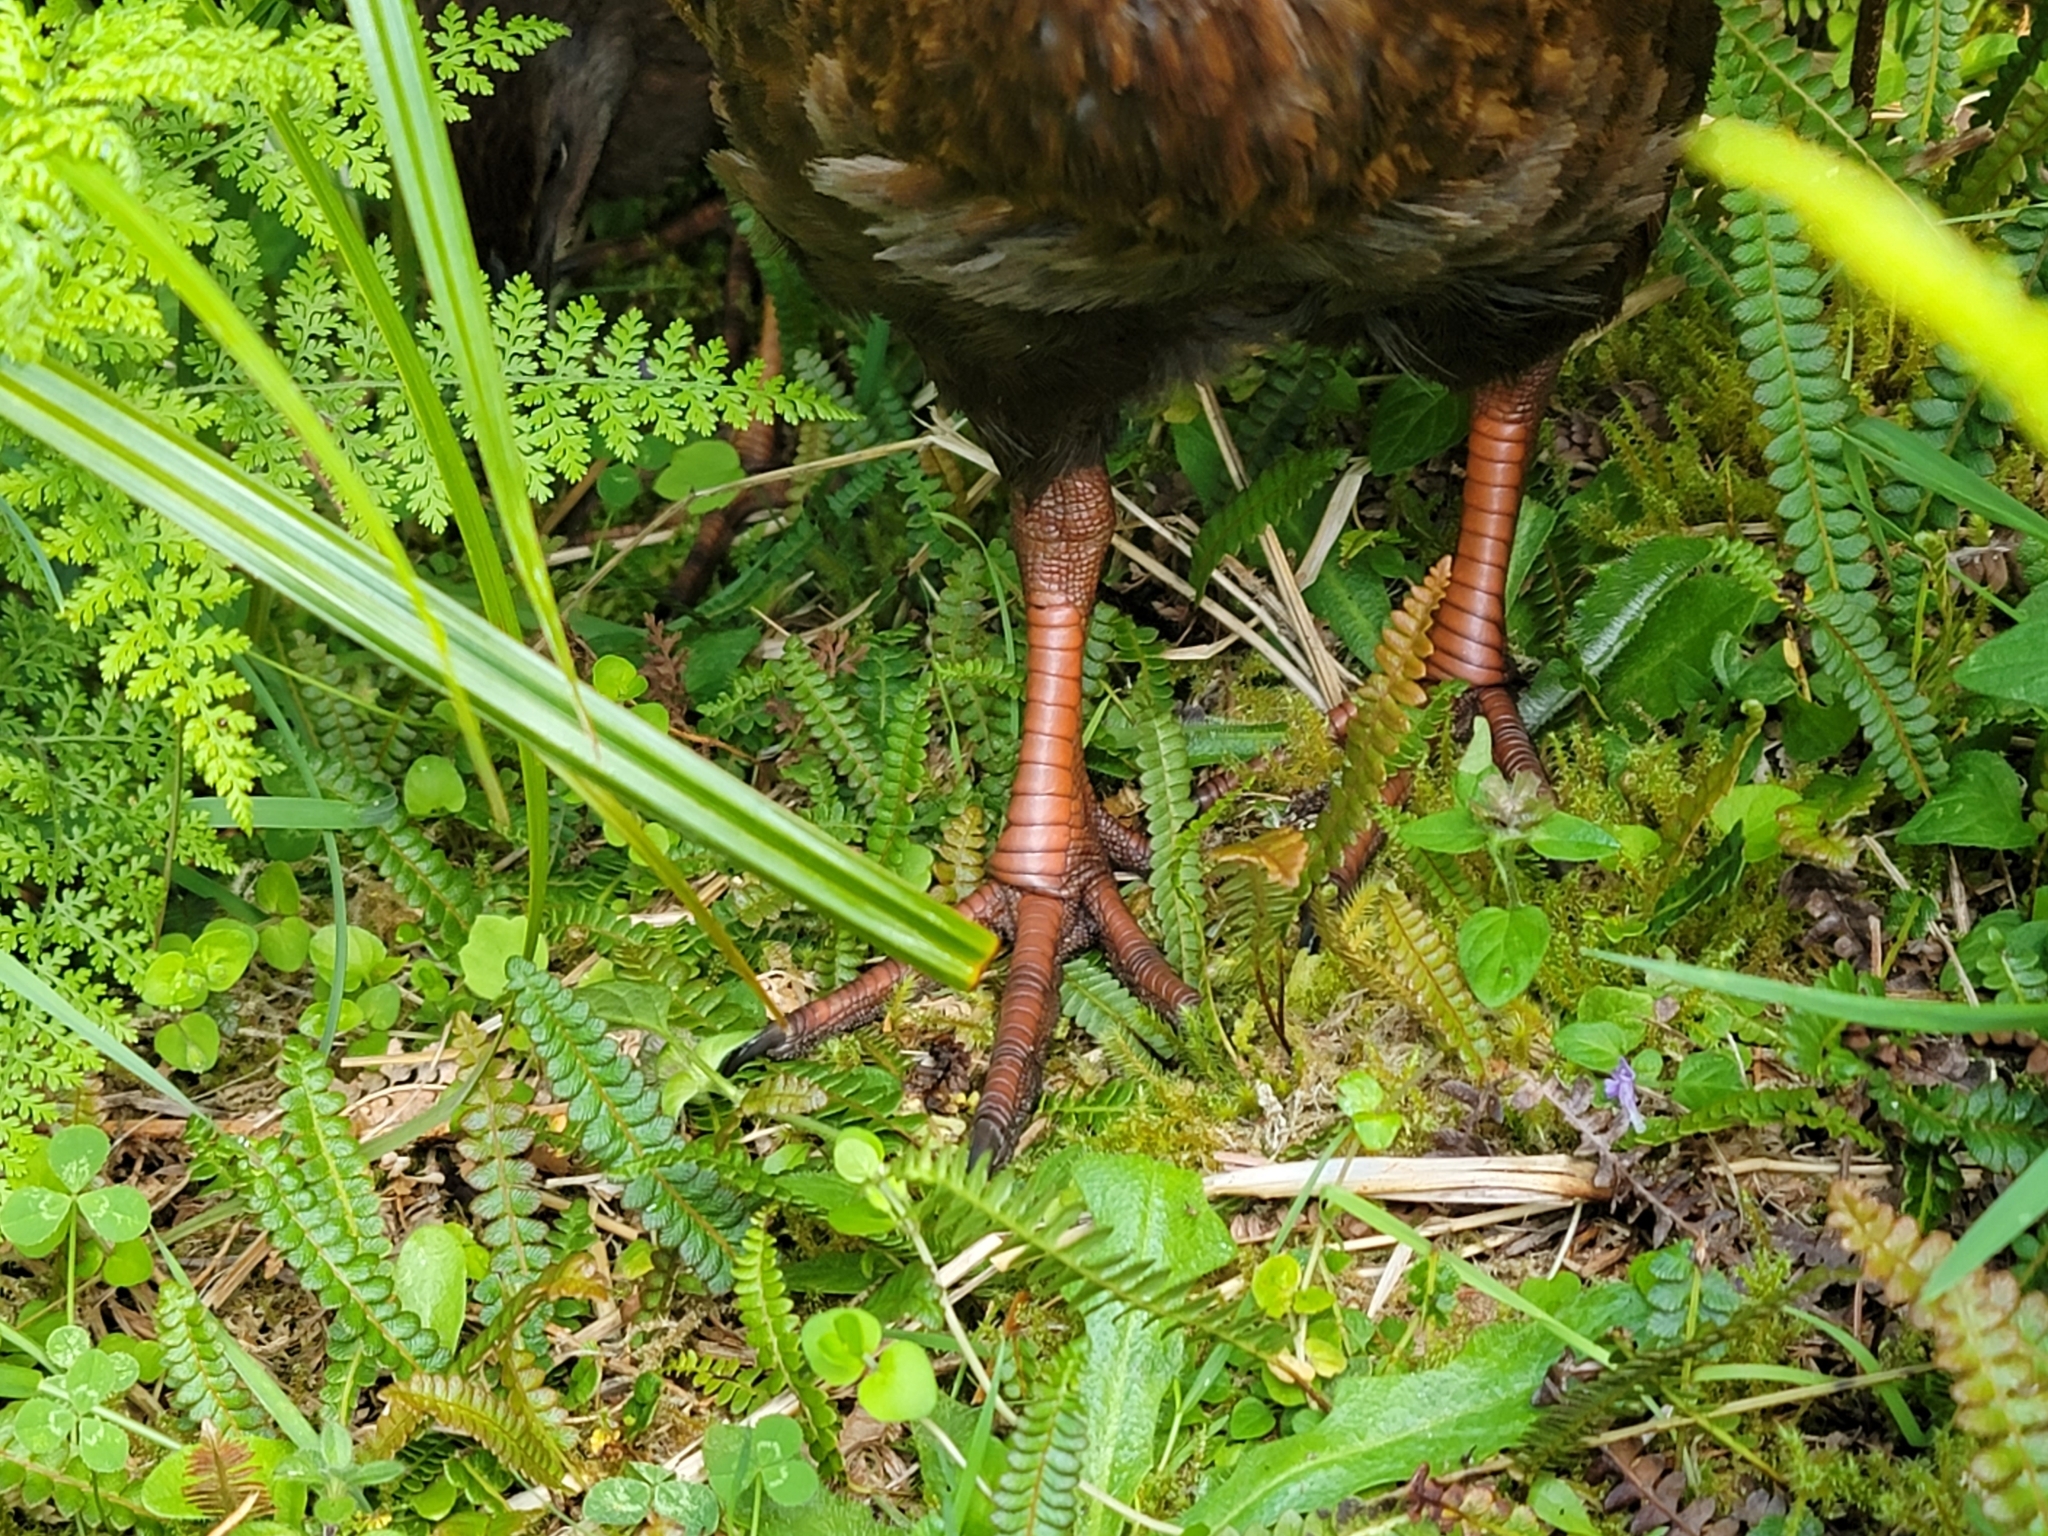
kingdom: Animalia
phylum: Chordata
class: Aves
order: Gruiformes
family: Rallidae
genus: Gallirallus
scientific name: Gallirallus australis
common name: Weka
